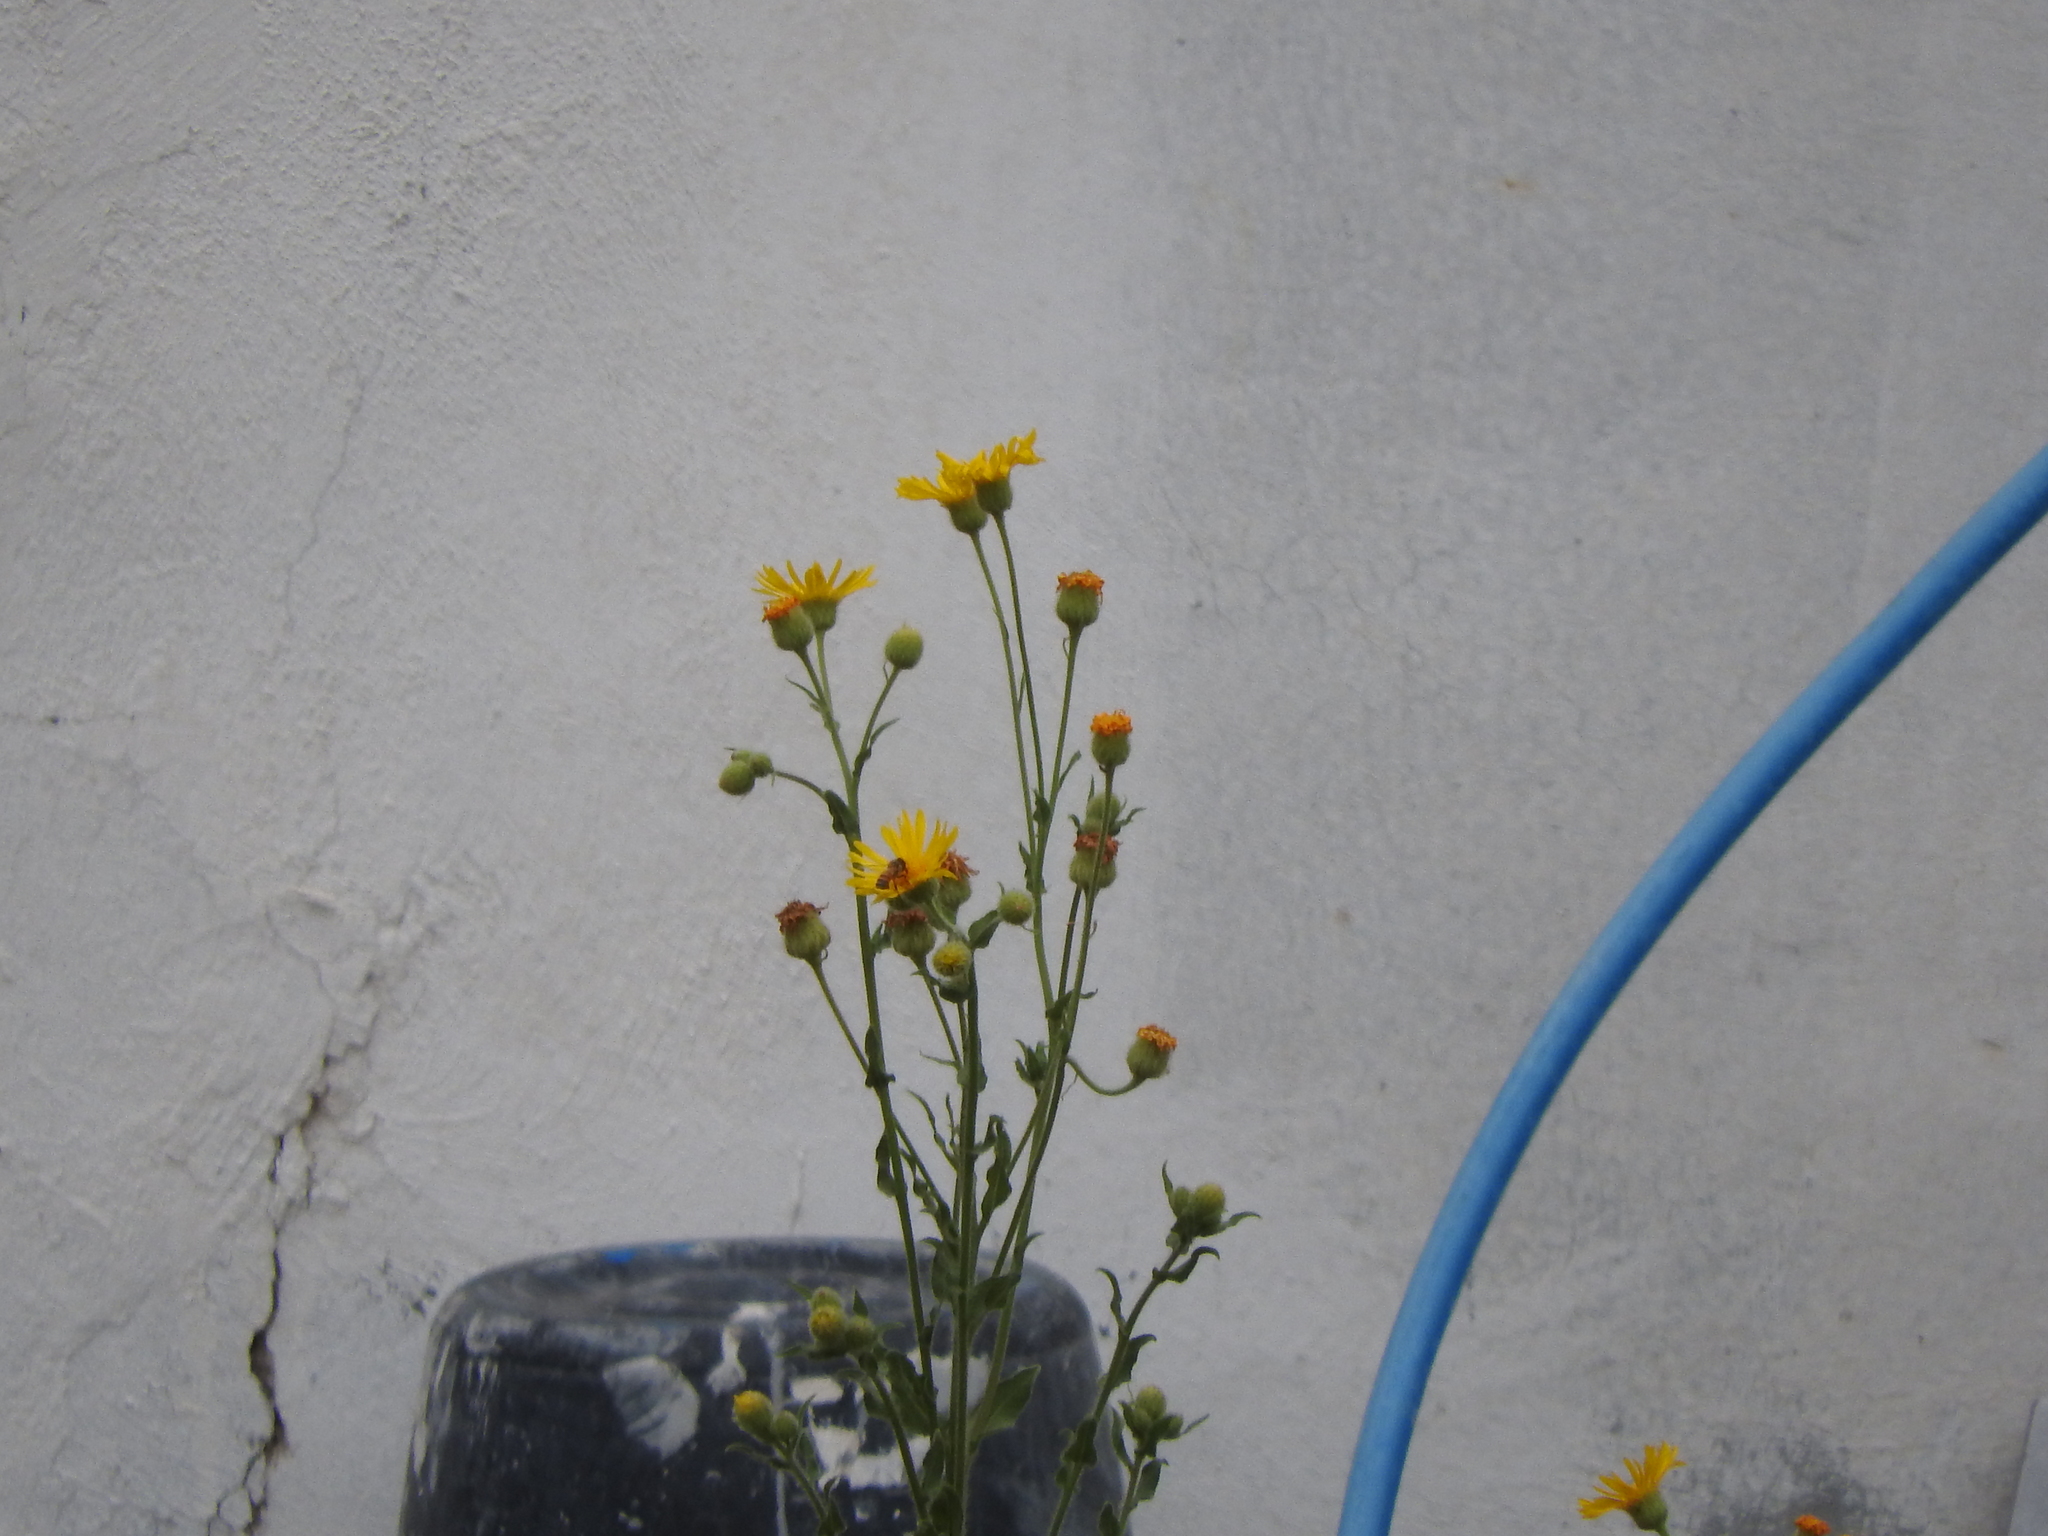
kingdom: Animalia
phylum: Arthropoda
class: Insecta
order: Hymenoptera
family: Apidae
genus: Apis
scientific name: Apis mellifera
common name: Honey bee
